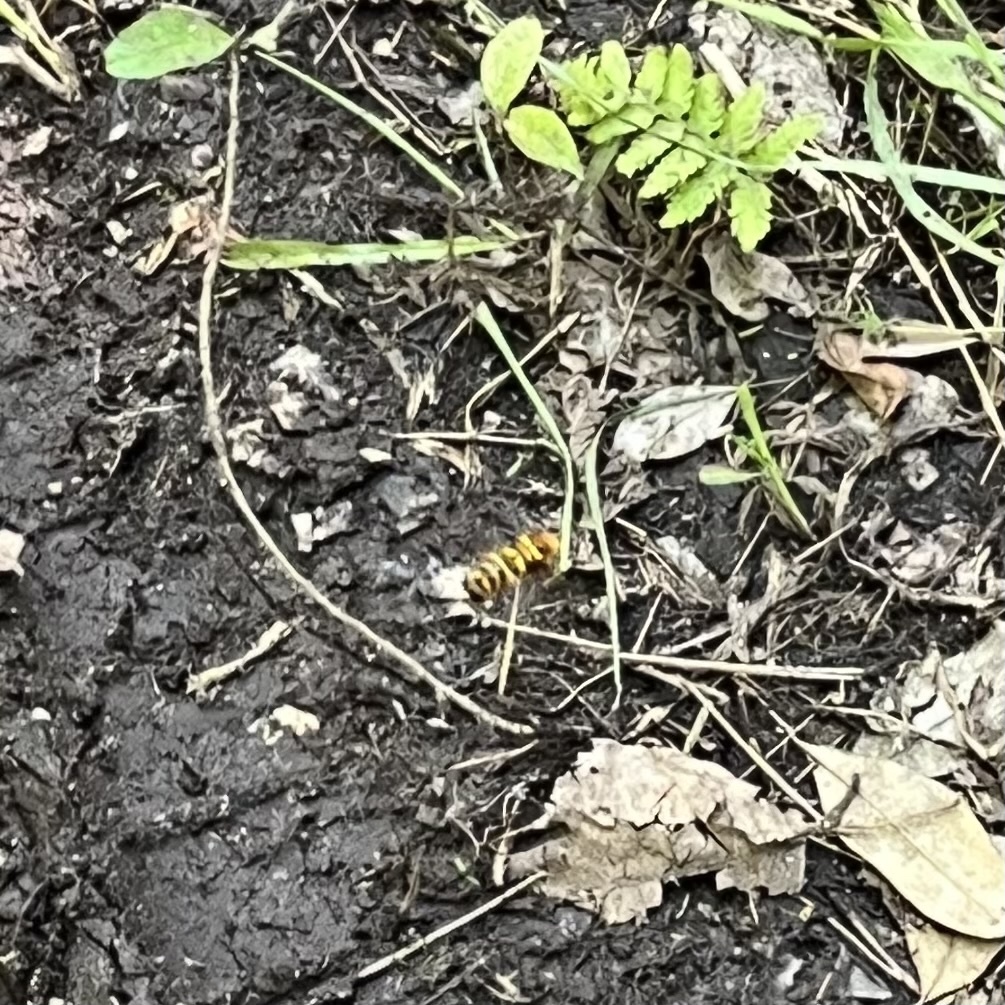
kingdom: Animalia
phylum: Arthropoda
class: Insecta
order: Diptera
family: Syrphidae
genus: Milesia
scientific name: Milesia virginiensis
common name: Virginia giant
